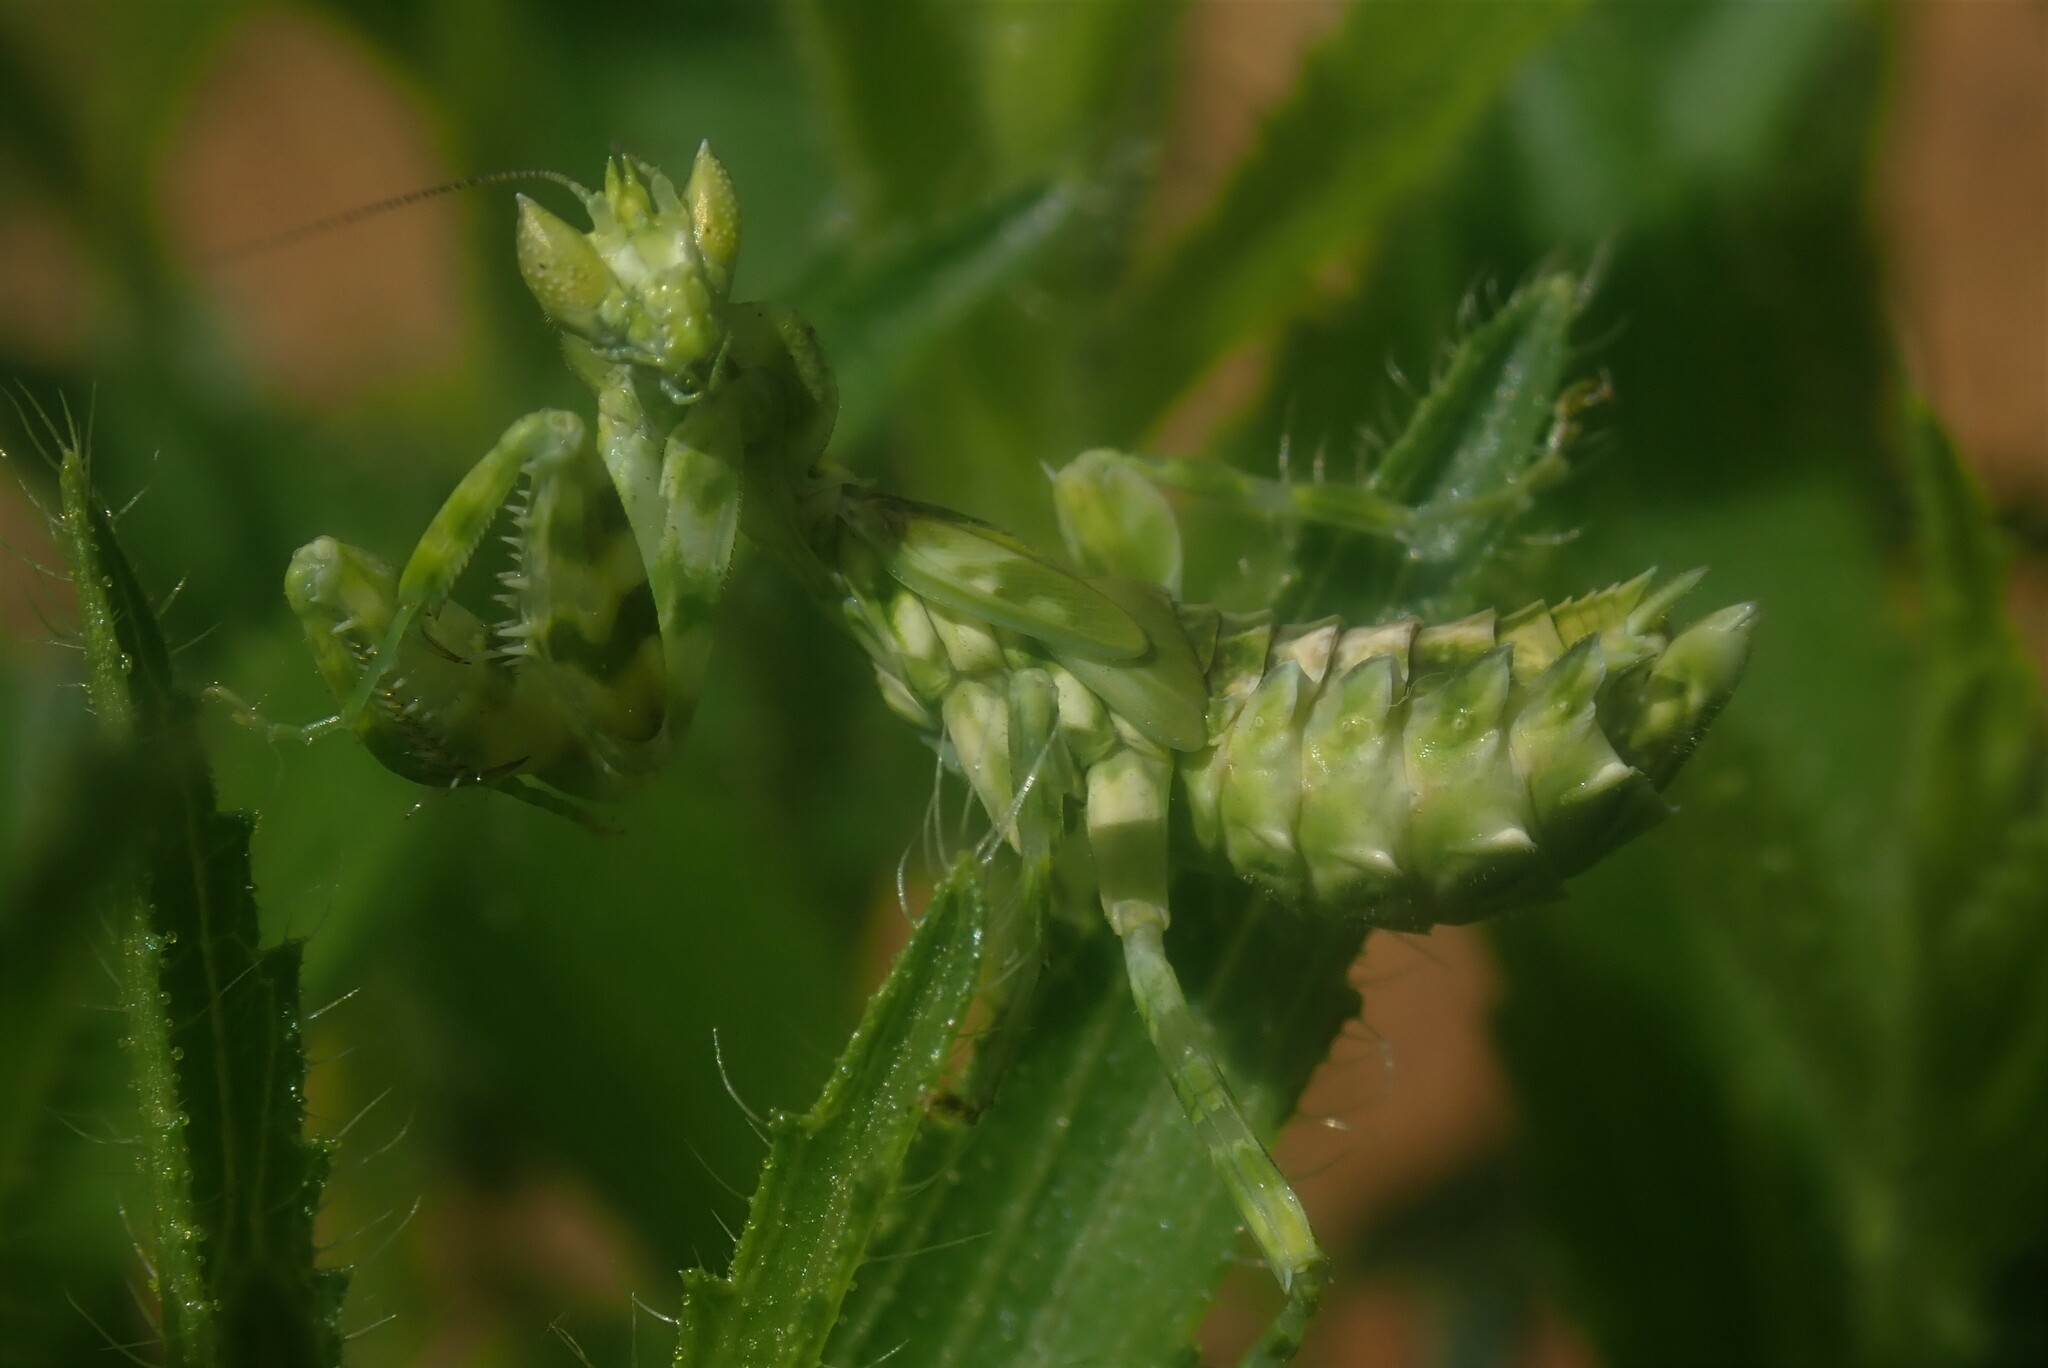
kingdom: Animalia
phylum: Arthropoda
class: Insecta
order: Mantodea
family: Galinthiadidae
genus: Harpagomantis
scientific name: Harpagomantis tricolor
